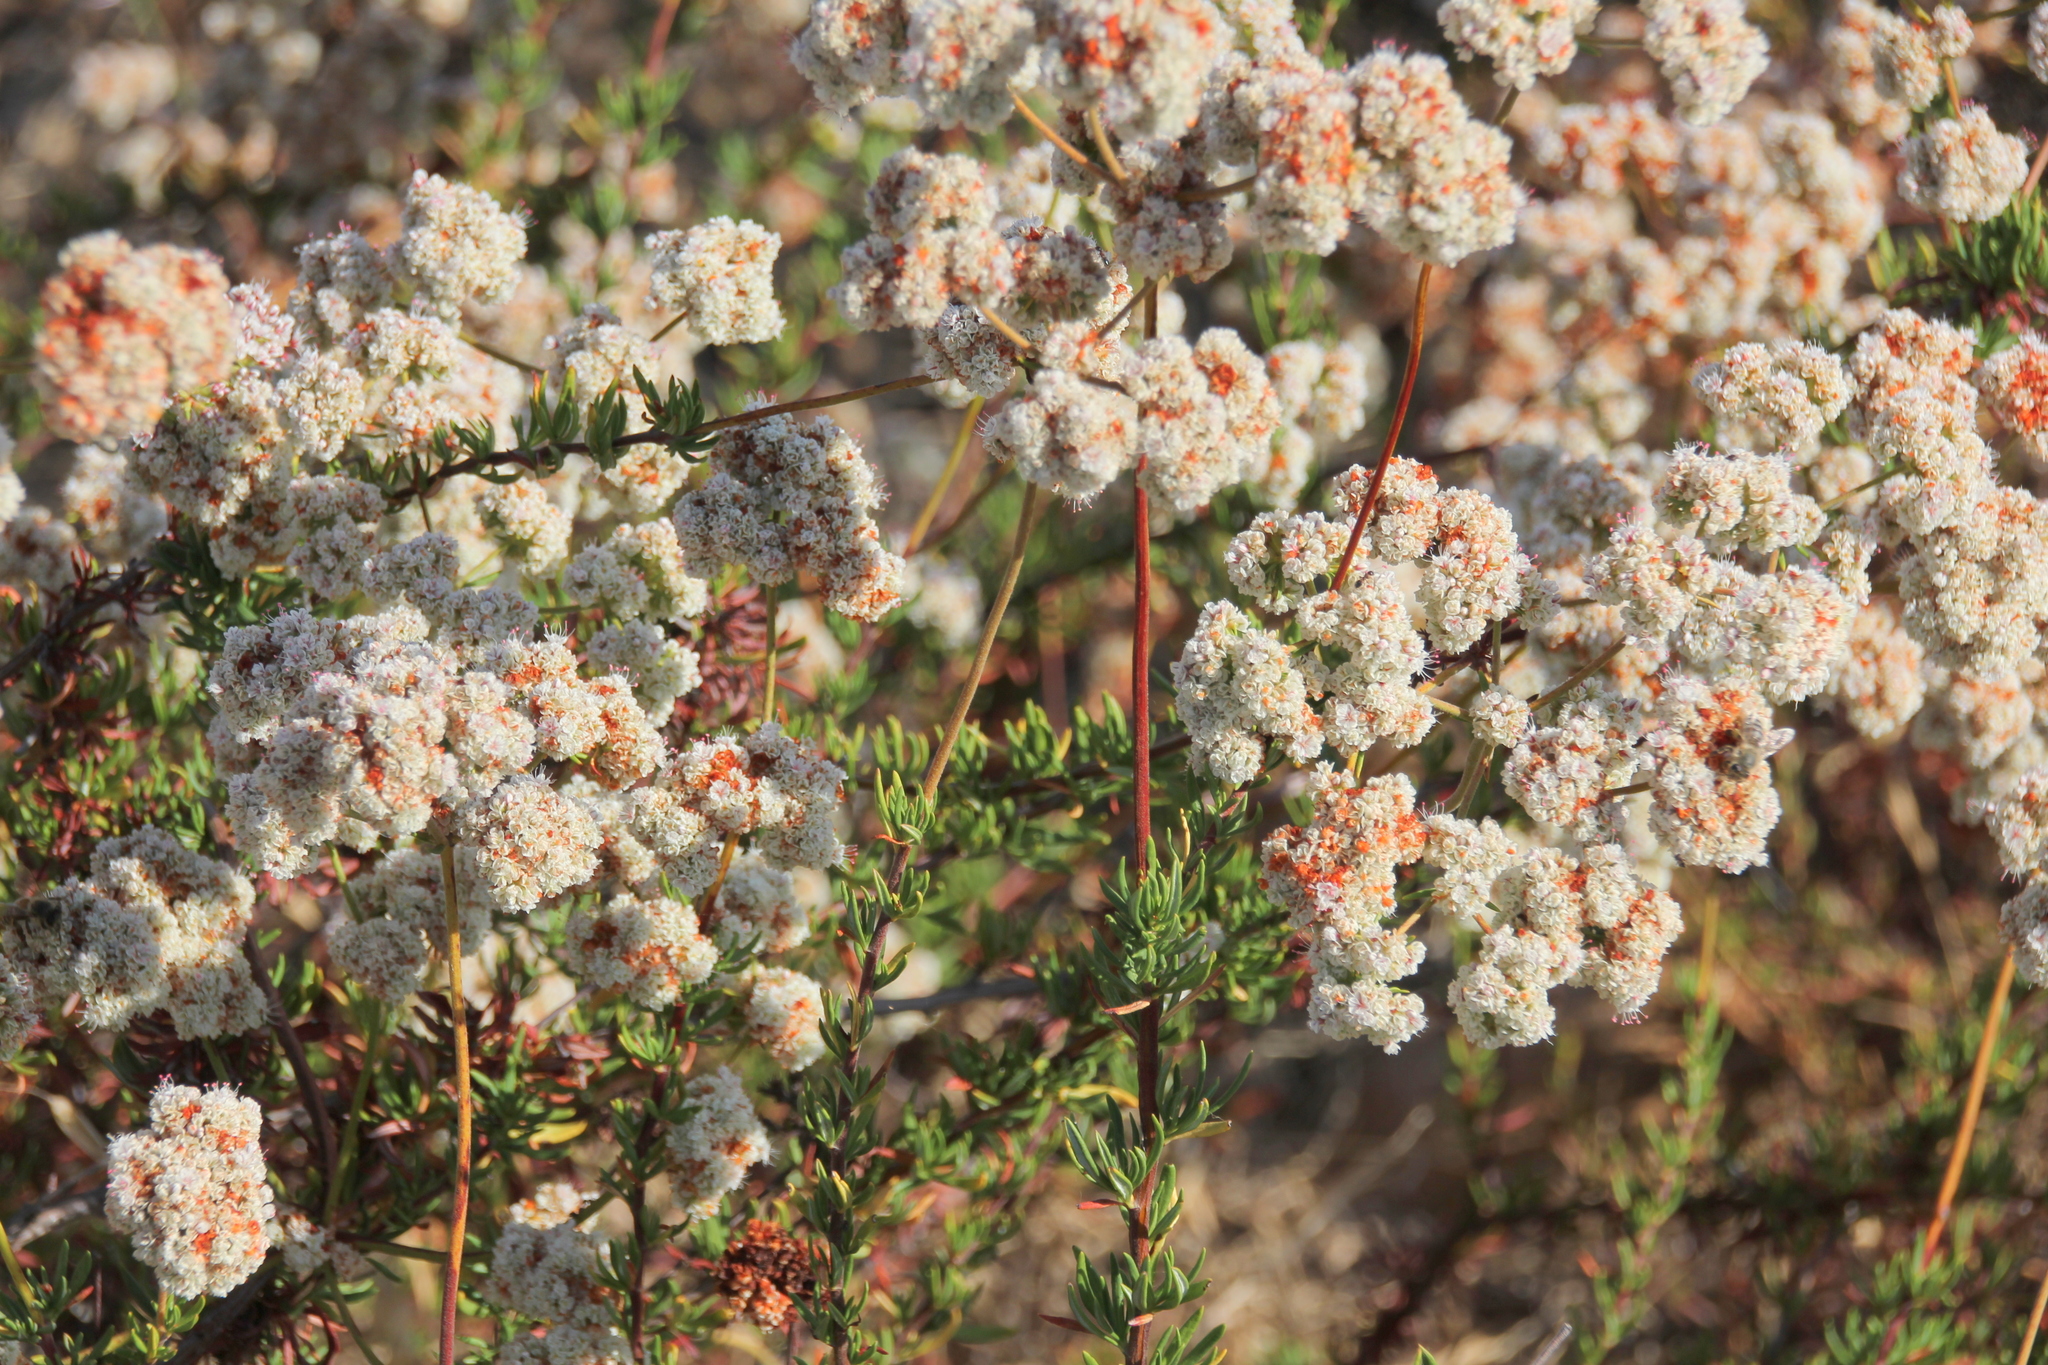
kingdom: Plantae
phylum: Tracheophyta
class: Magnoliopsida
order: Caryophyllales
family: Polygonaceae
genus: Eriogonum
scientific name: Eriogonum fasciculatum
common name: California wild buckwheat
